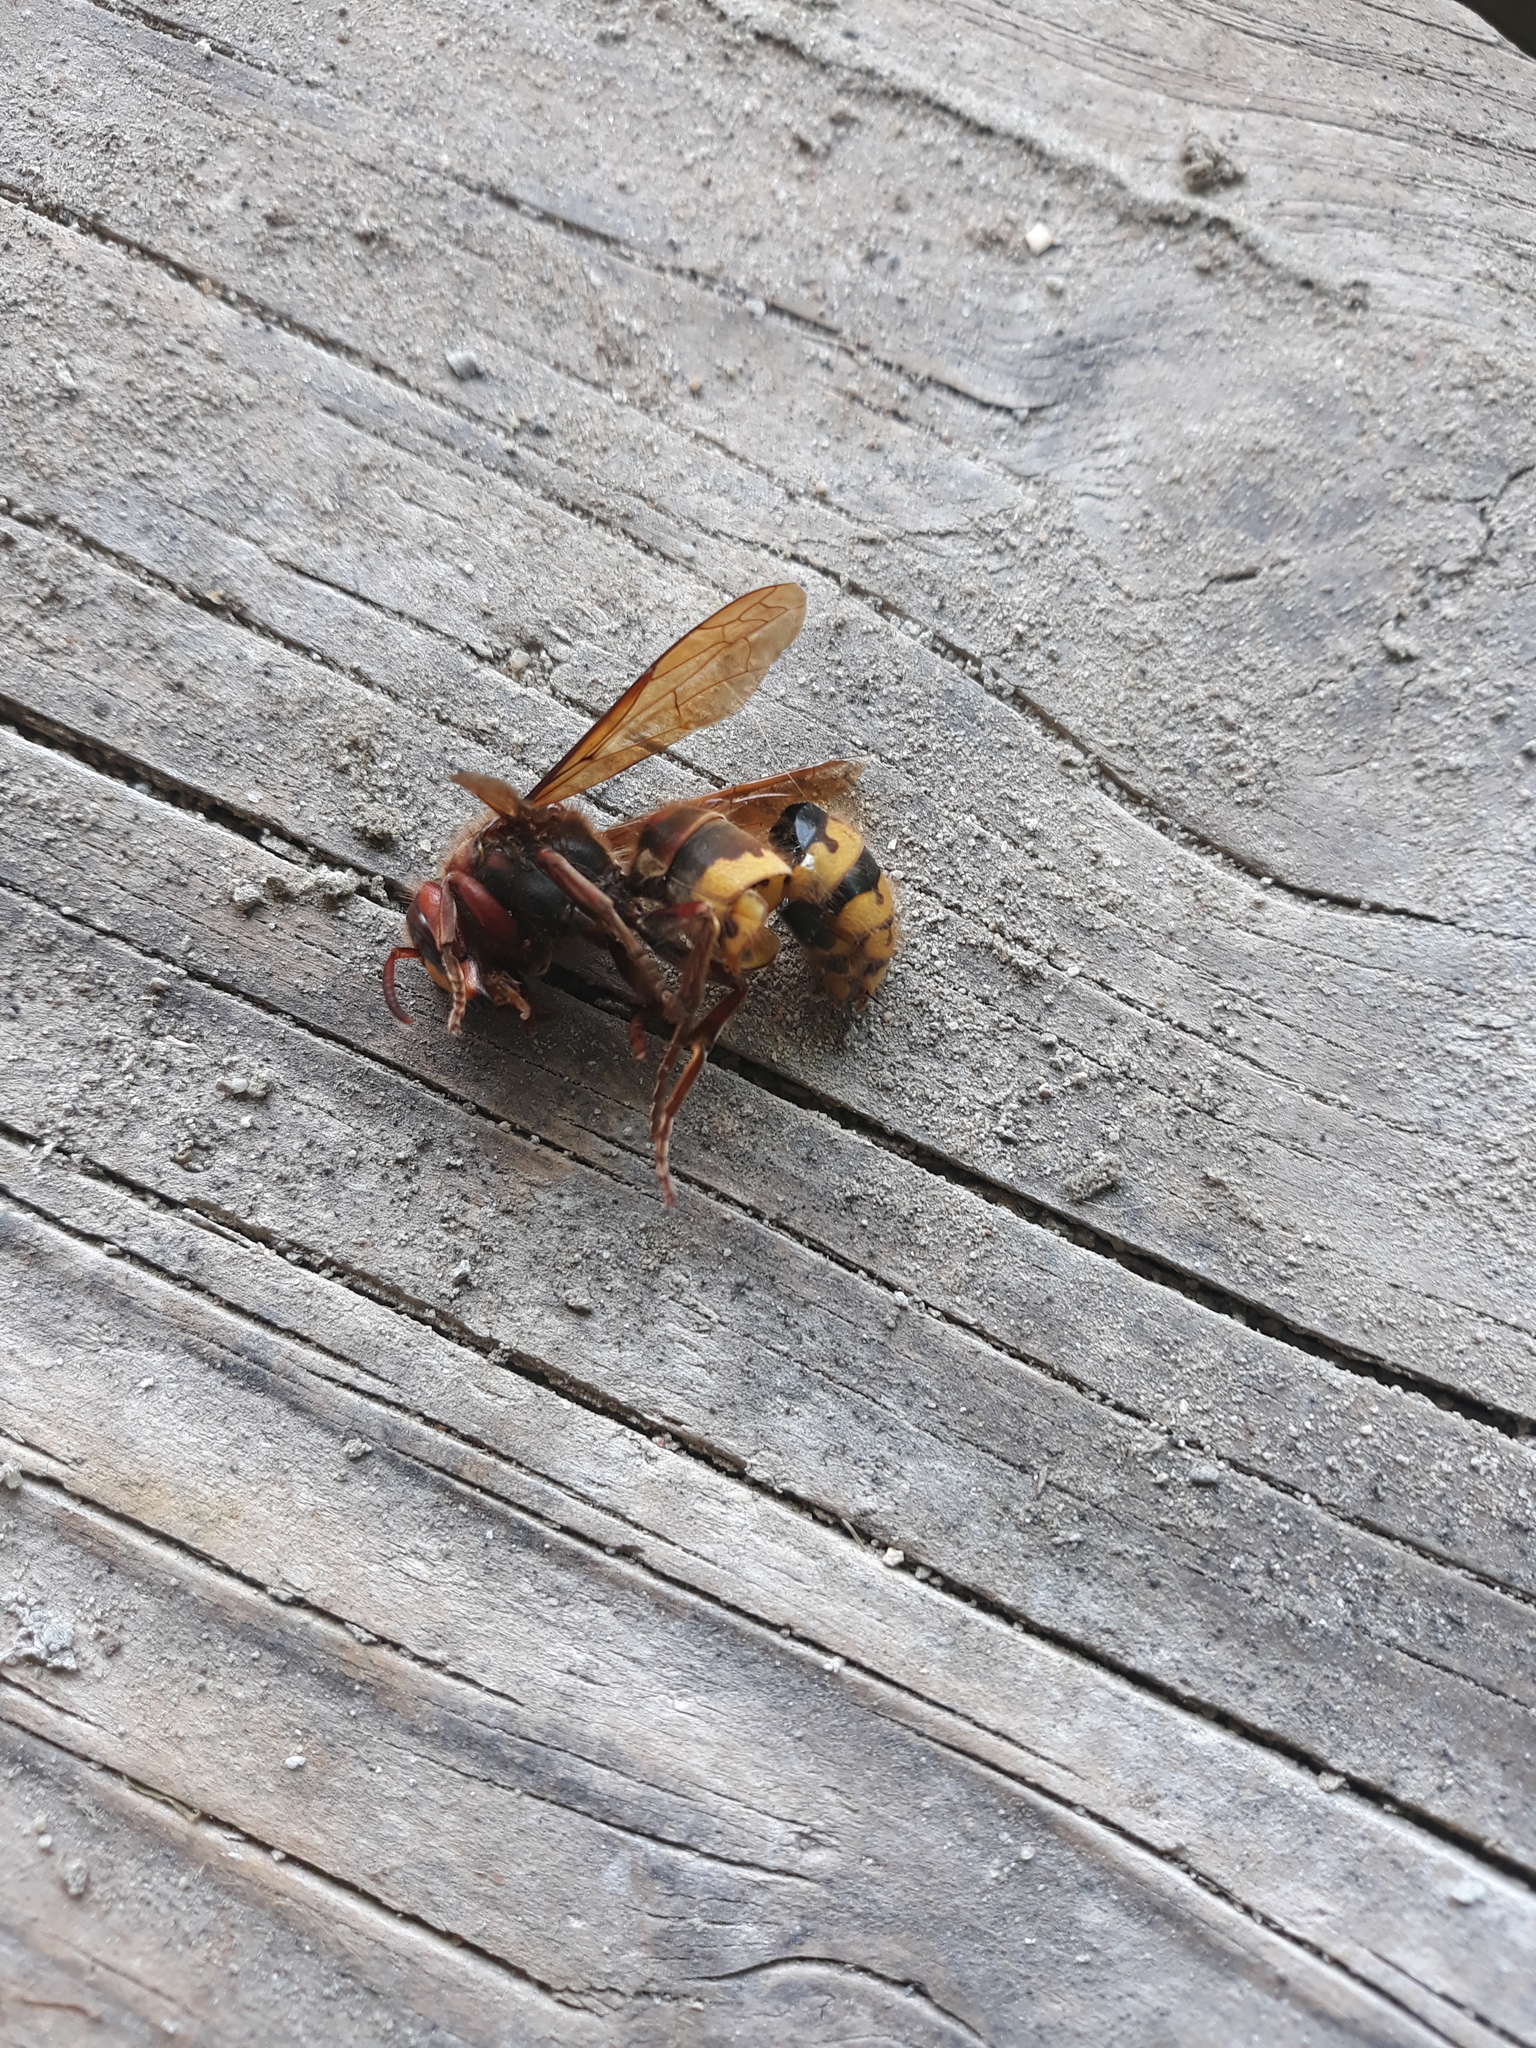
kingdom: Animalia
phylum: Arthropoda
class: Insecta
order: Hymenoptera
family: Vespidae
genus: Vespa
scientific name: Vespa crabro
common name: Hornet
